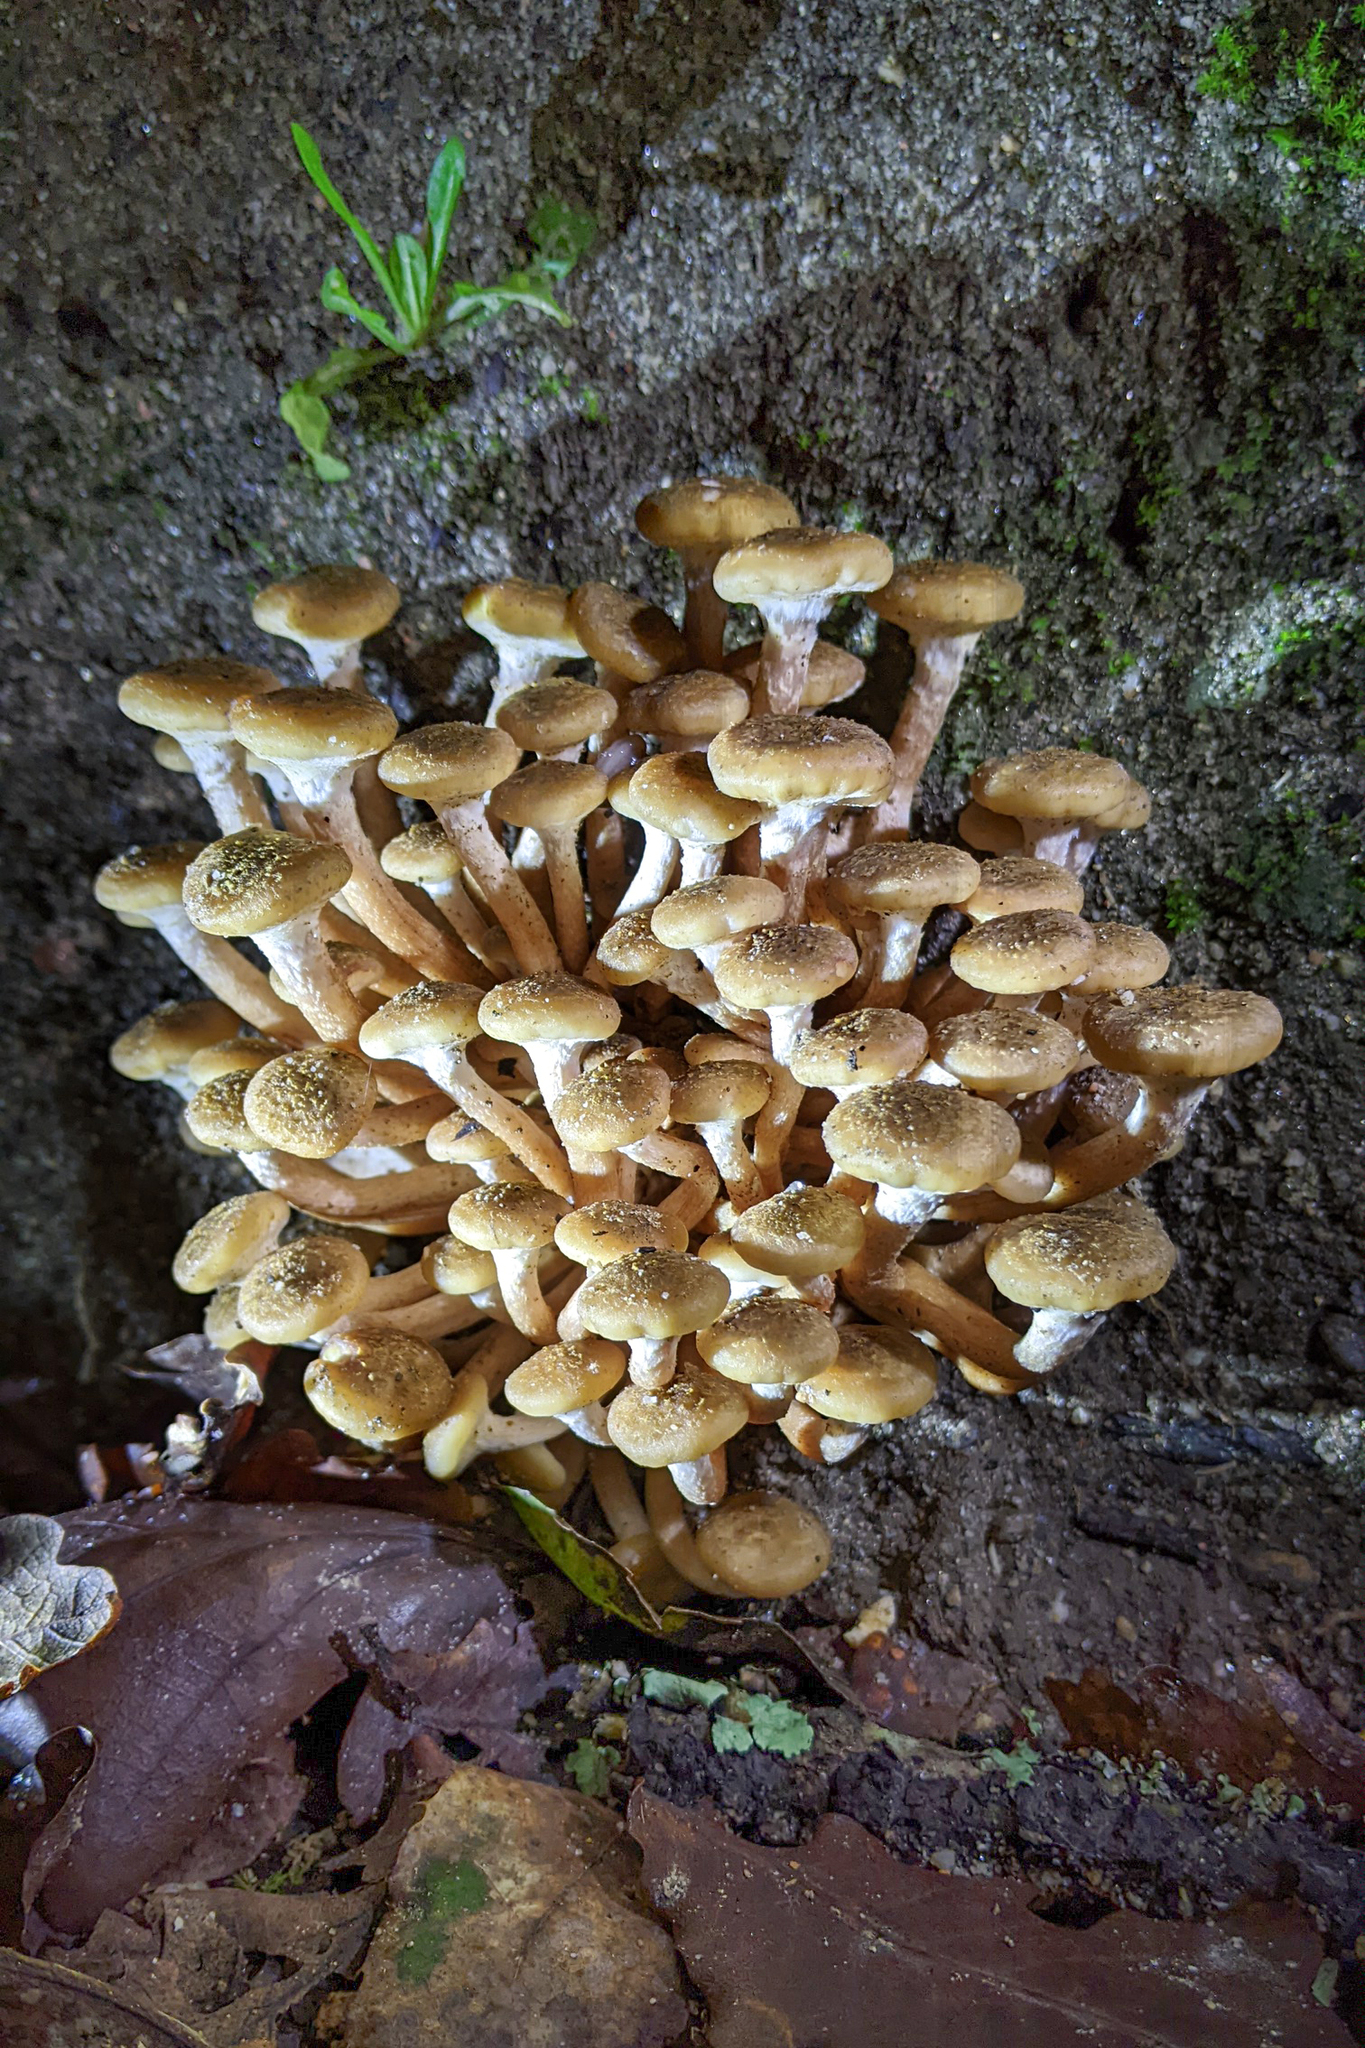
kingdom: Fungi
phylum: Basidiomycota
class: Agaricomycetes
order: Agaricales
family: Physalacriaceae
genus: Armillaria
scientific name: Armillaria mellea
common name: Honey fungus
